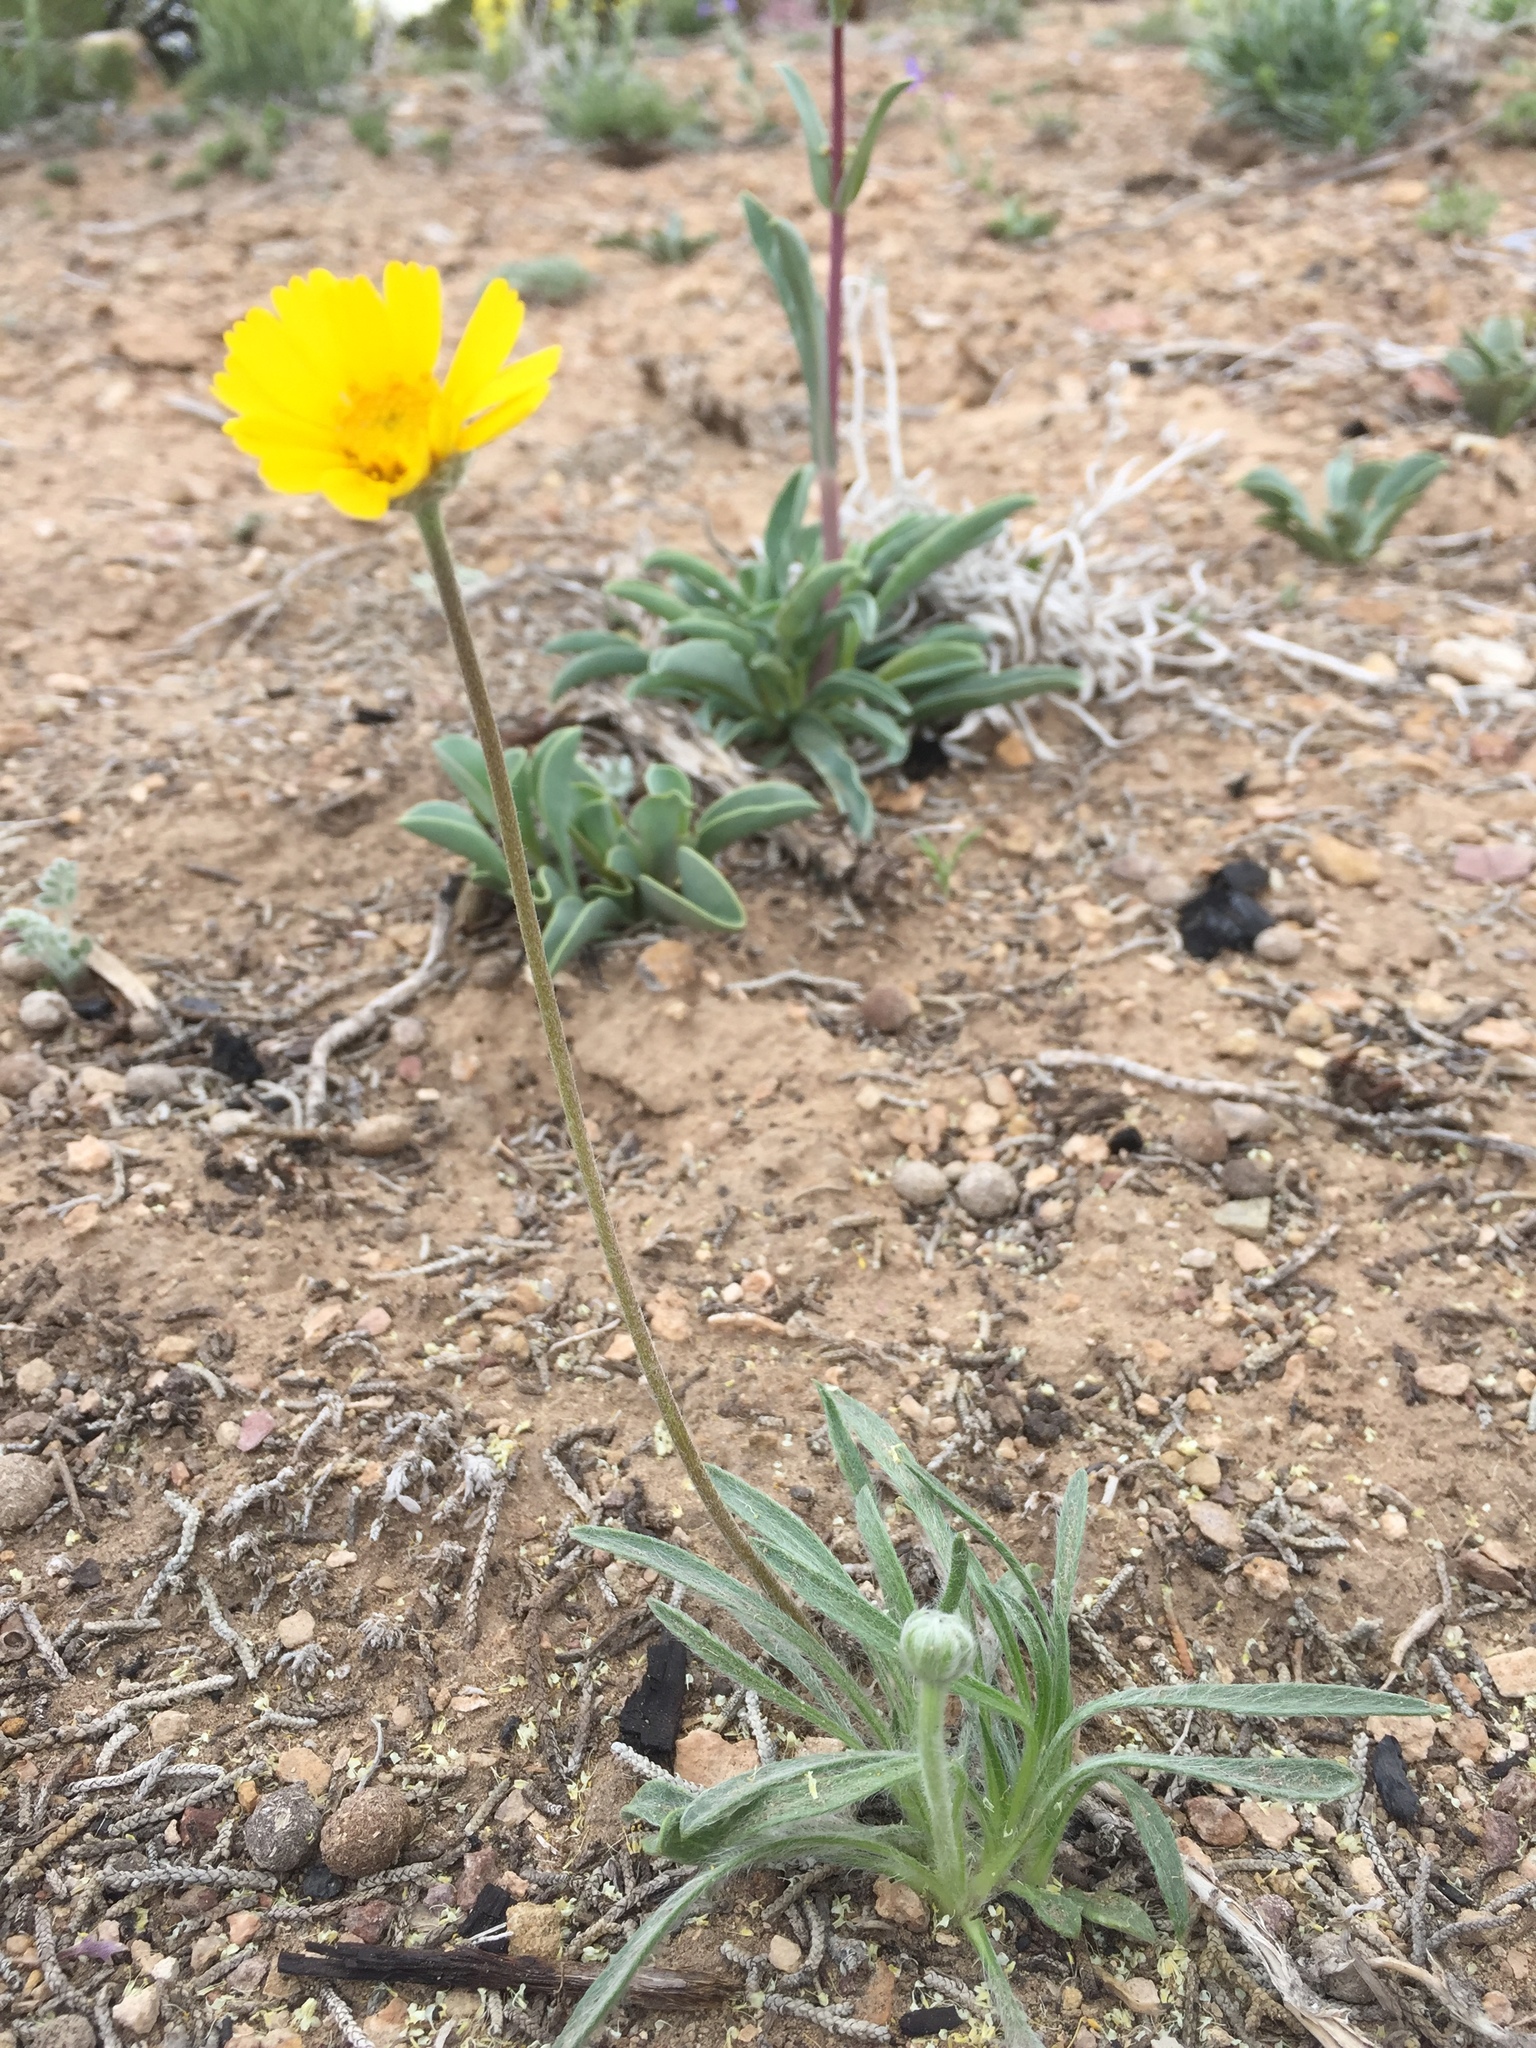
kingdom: Plantae
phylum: Tracheophyta
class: Magnoliopsida
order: Asterales
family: Asteraceae
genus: Tetraneuris
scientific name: Tetraneuris acaulis
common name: Butte marigold
